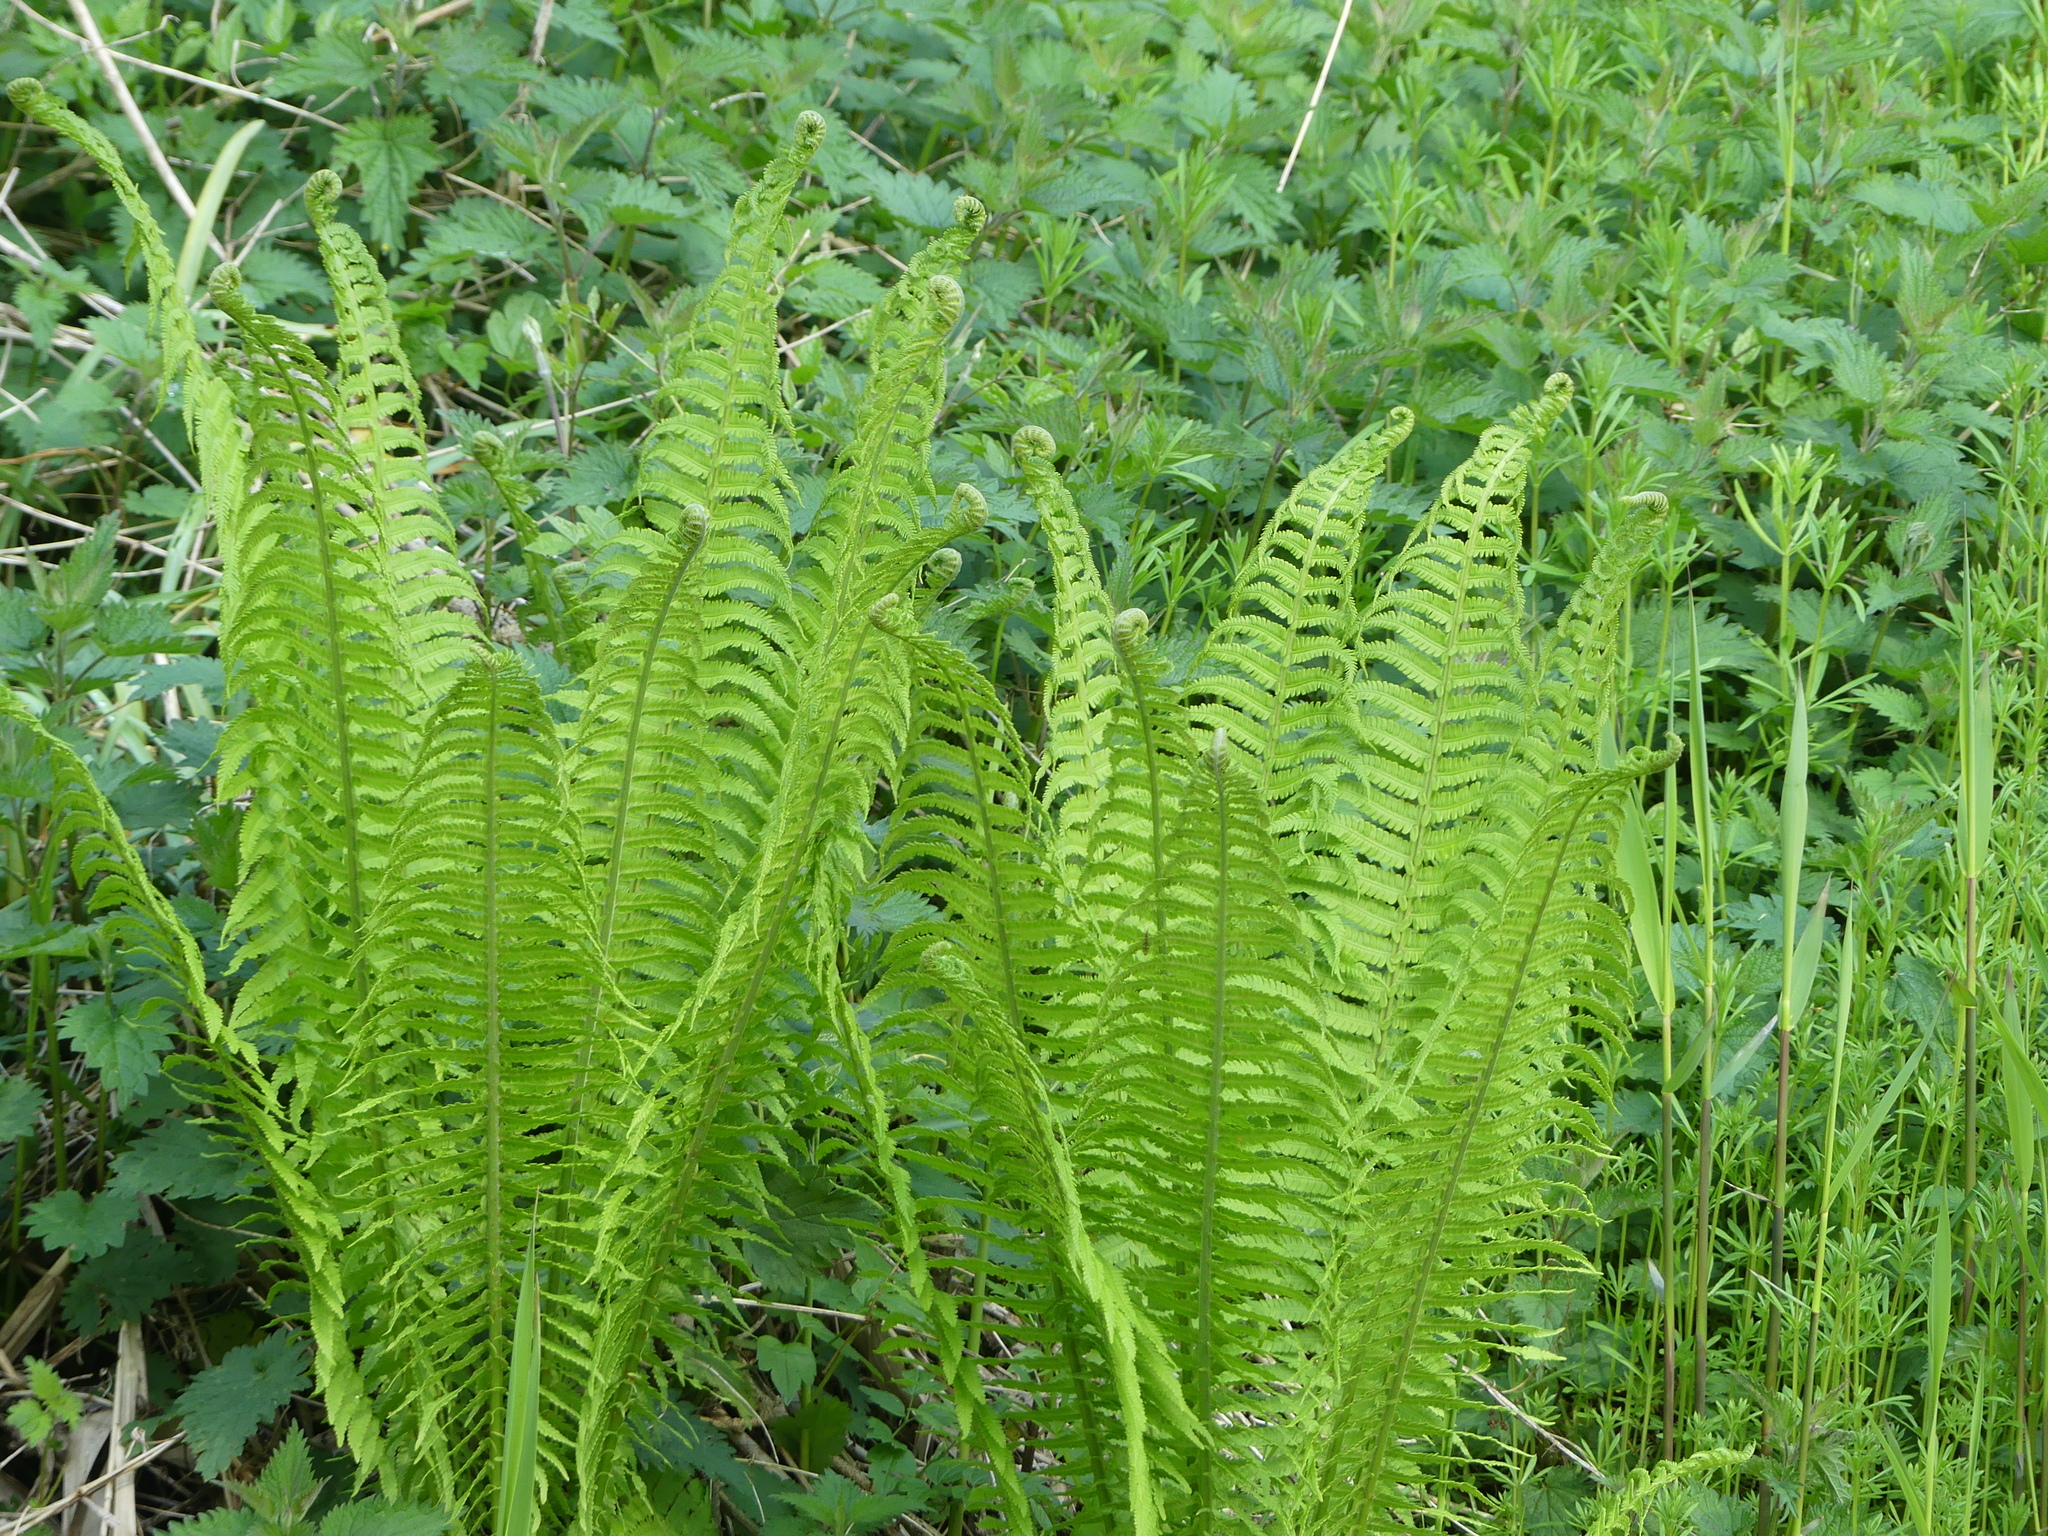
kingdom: Plantae
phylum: Tracheophyta
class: Polypodiopsida
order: Polypodiales
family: Onocleaceae
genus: Matteuccia
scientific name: Matteuccia struthiopteris
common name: Ostrich fern
